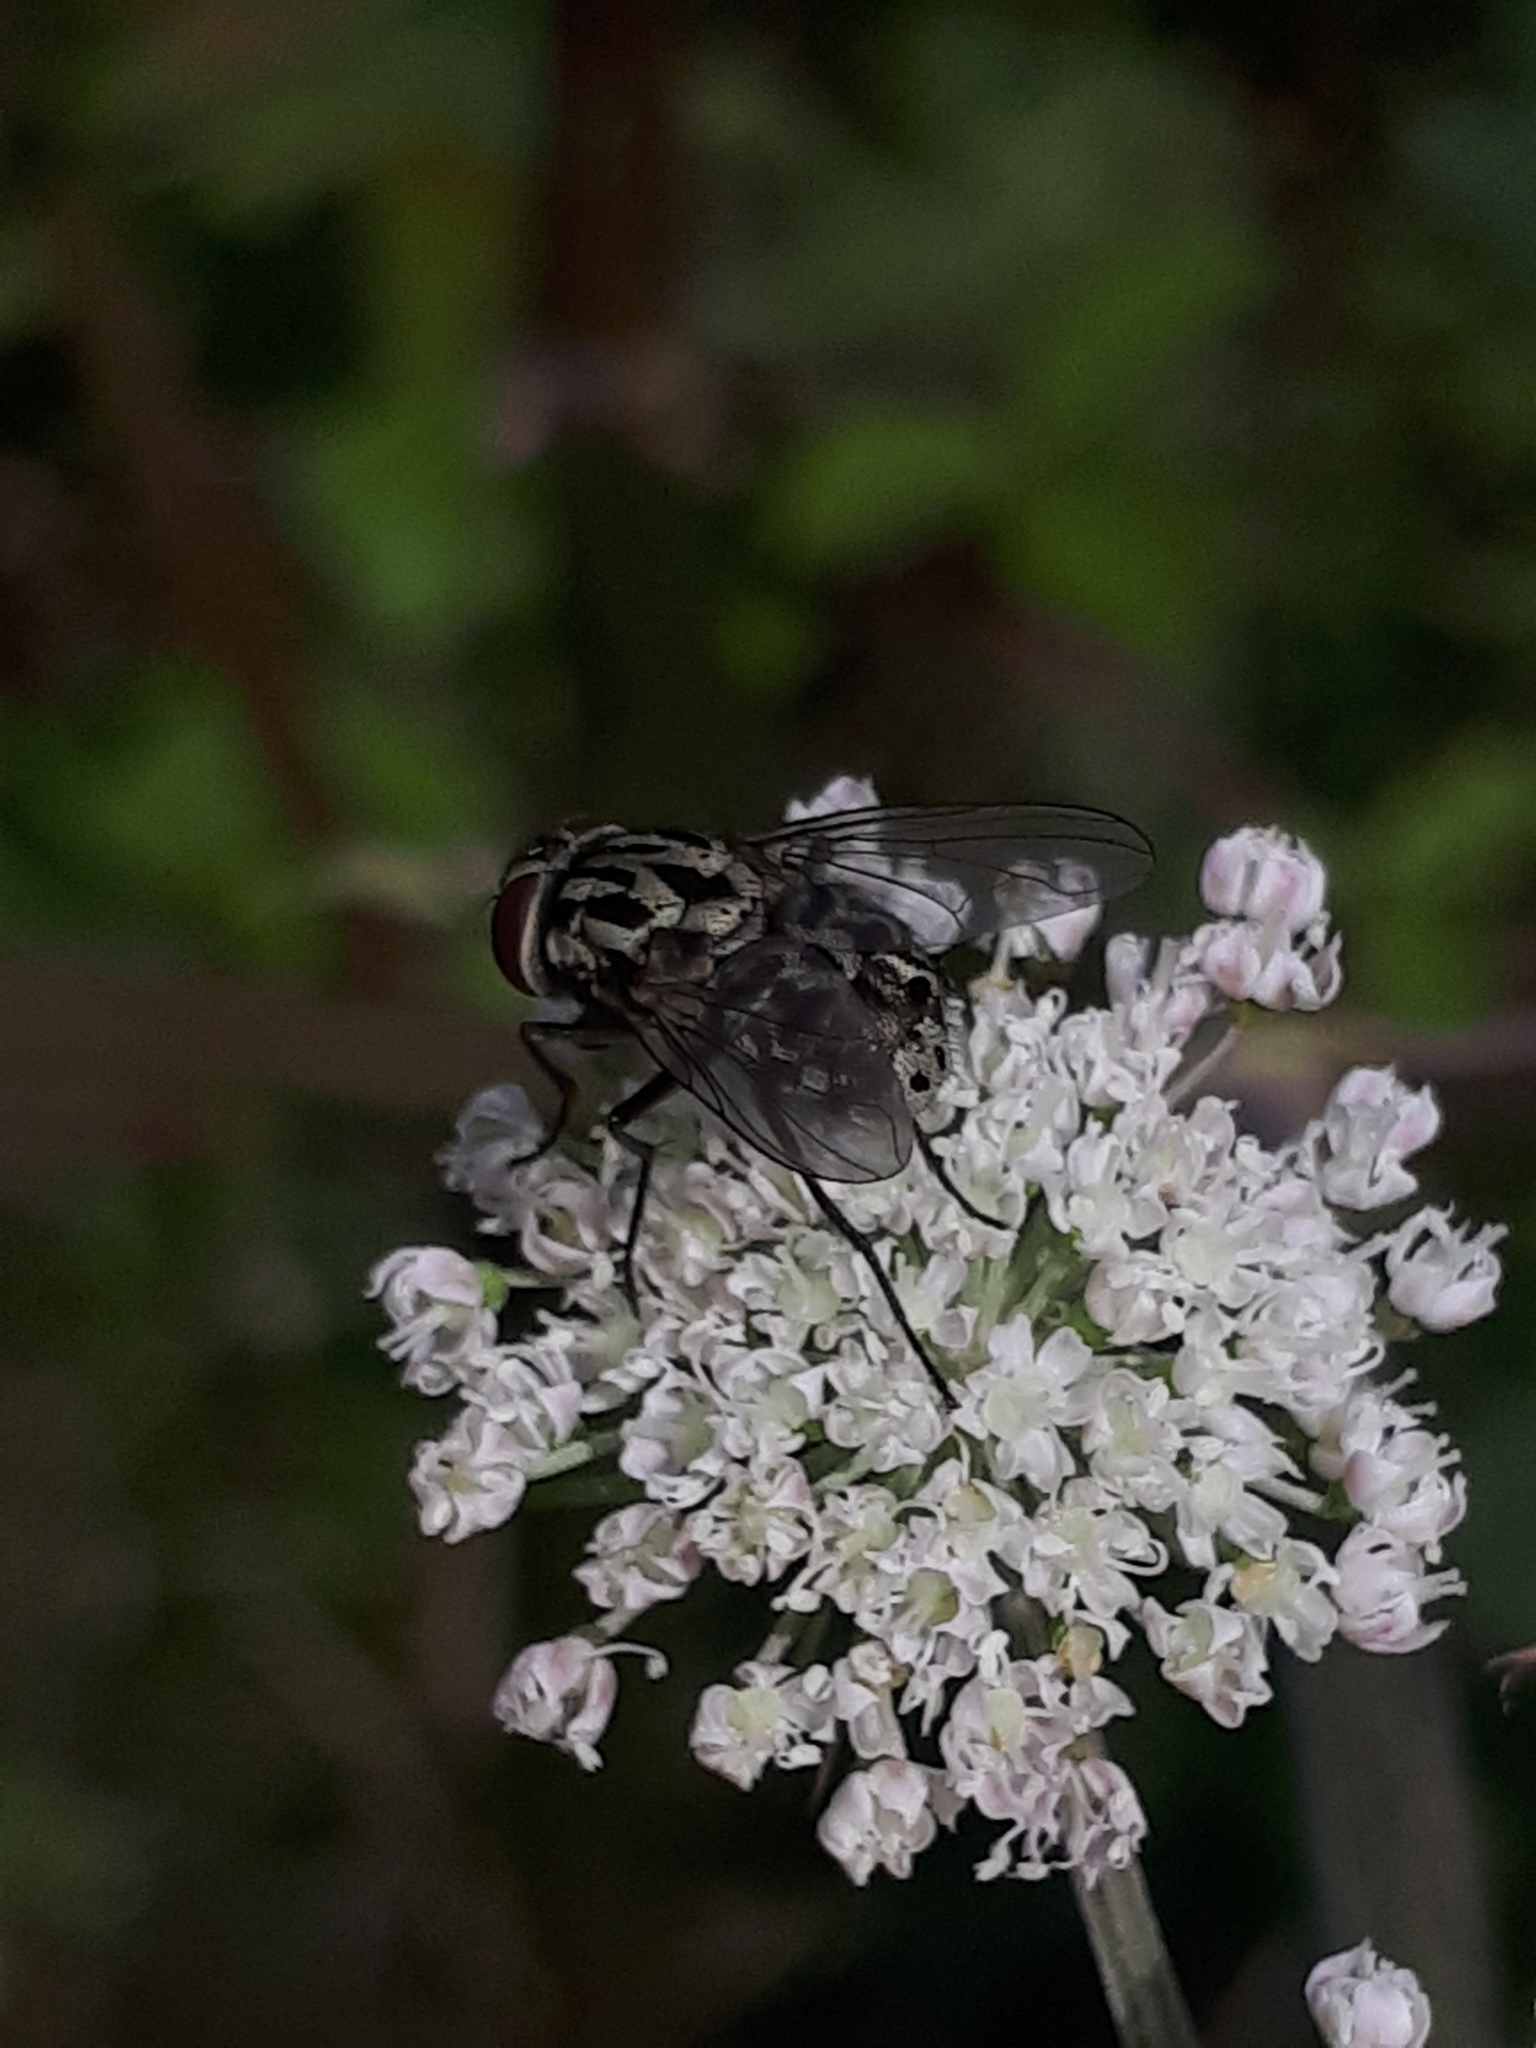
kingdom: Animalia
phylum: Arthropoda
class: Insecta
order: Diptera
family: Muscidae
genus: Graphomya
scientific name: Graphomya maculata
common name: Muscid fly
